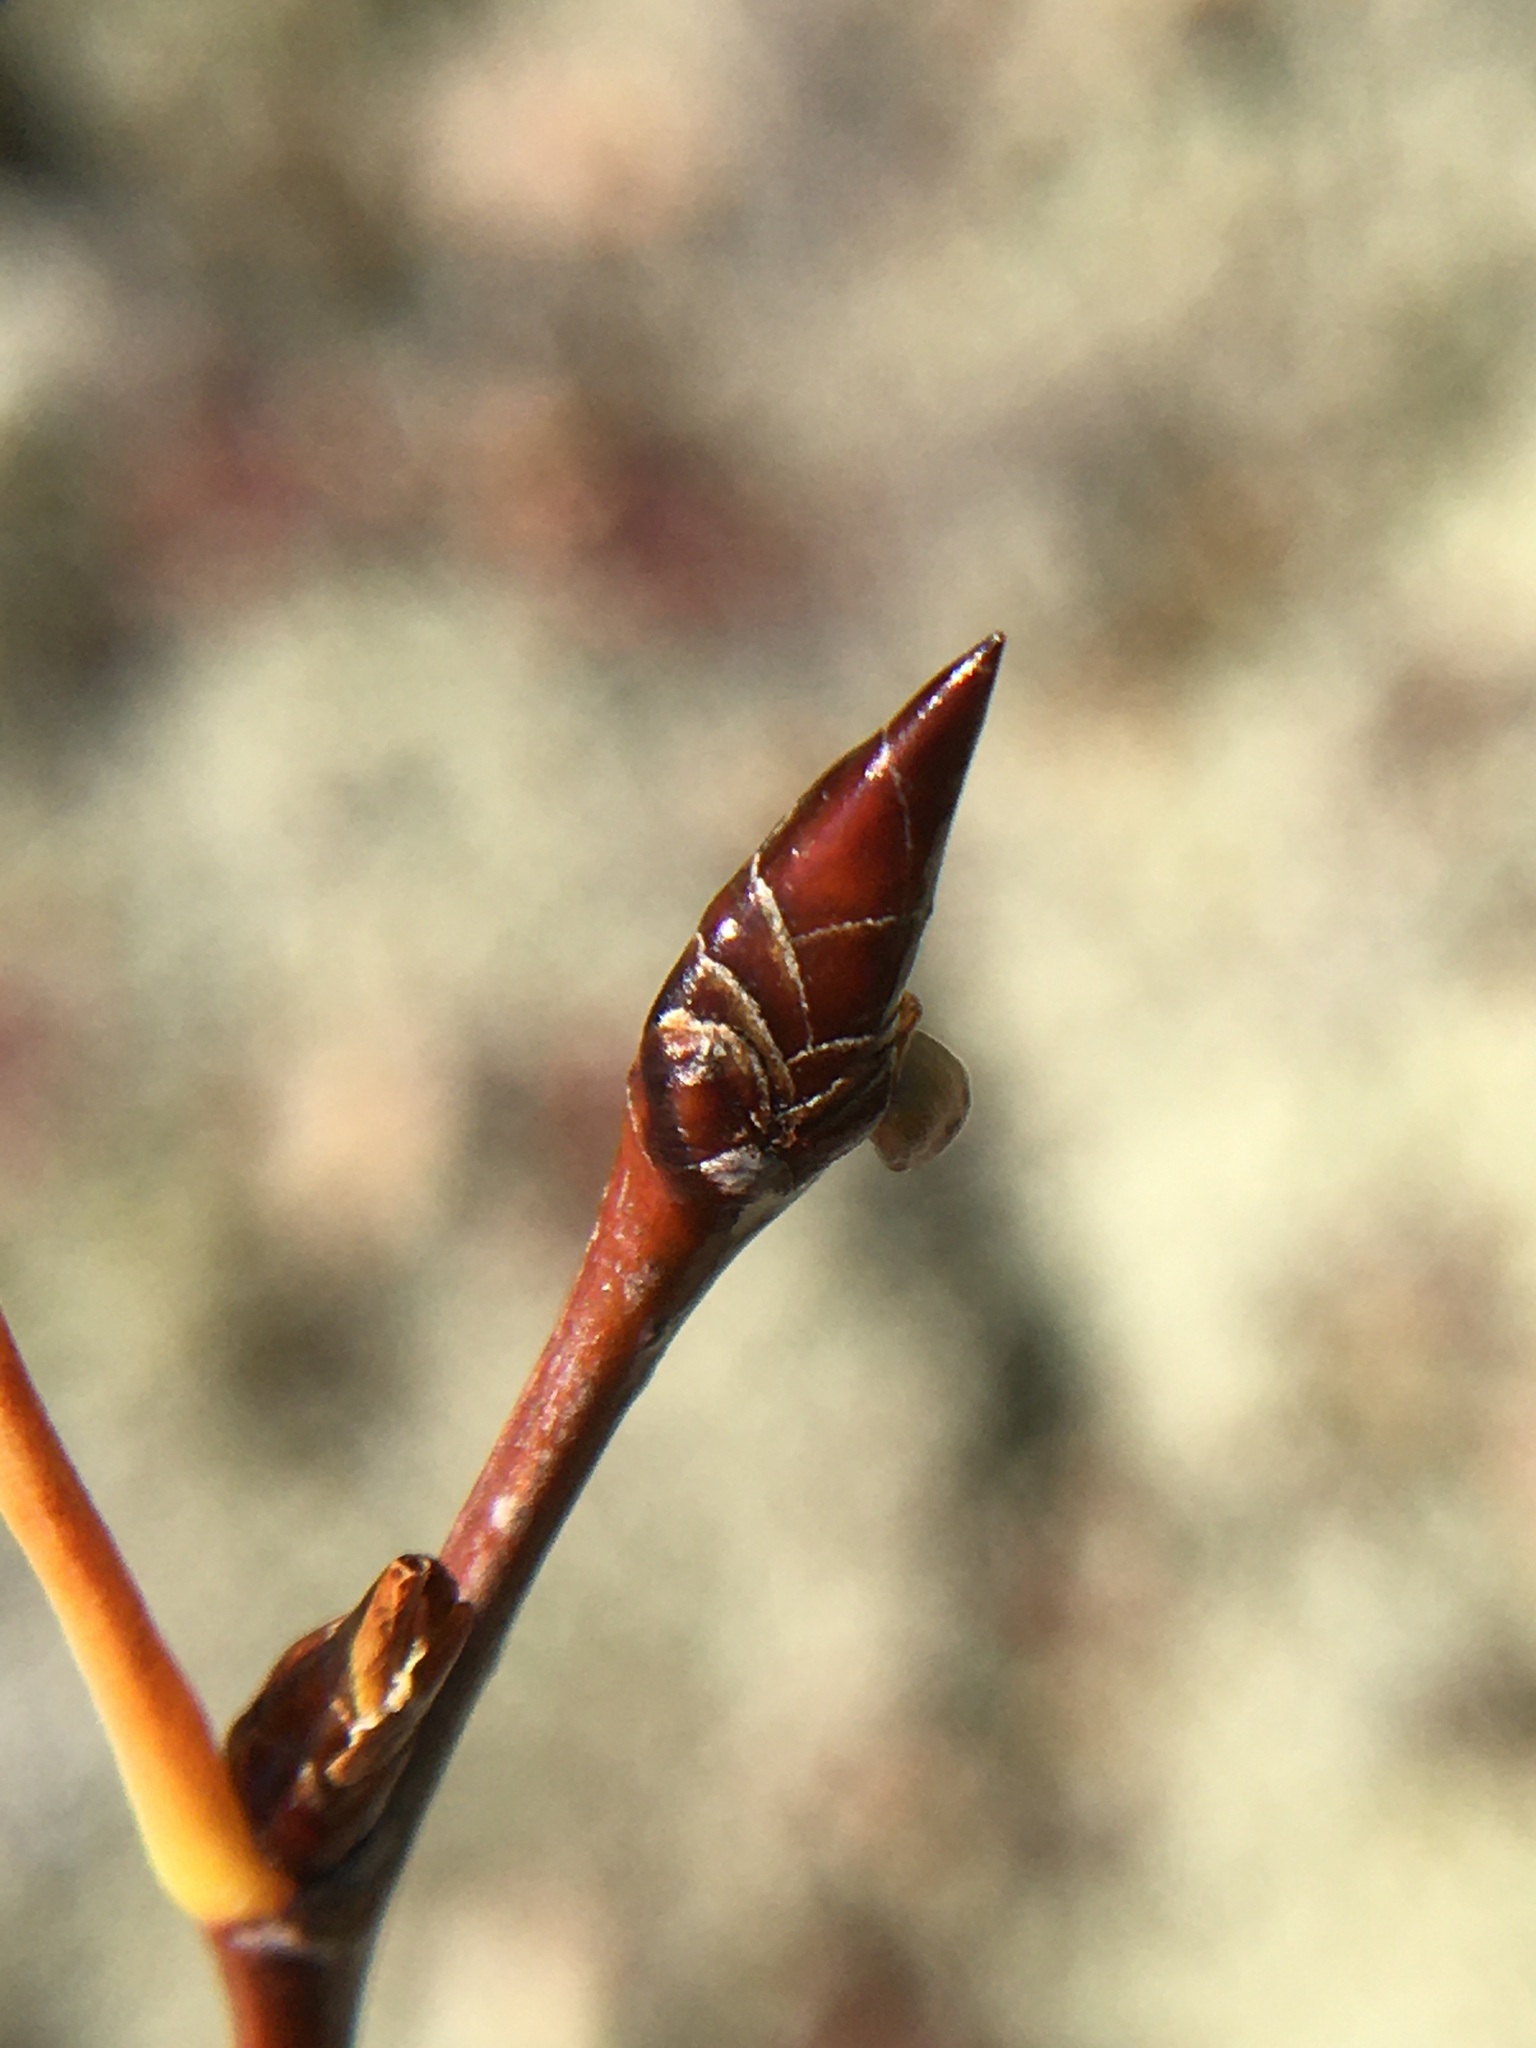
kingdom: Plantae
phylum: Tracheophyta
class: Magnoliopsida
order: Malpighiales
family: Salicaceae
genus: Populus
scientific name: Populus tremuloides
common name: Quaking aspen
